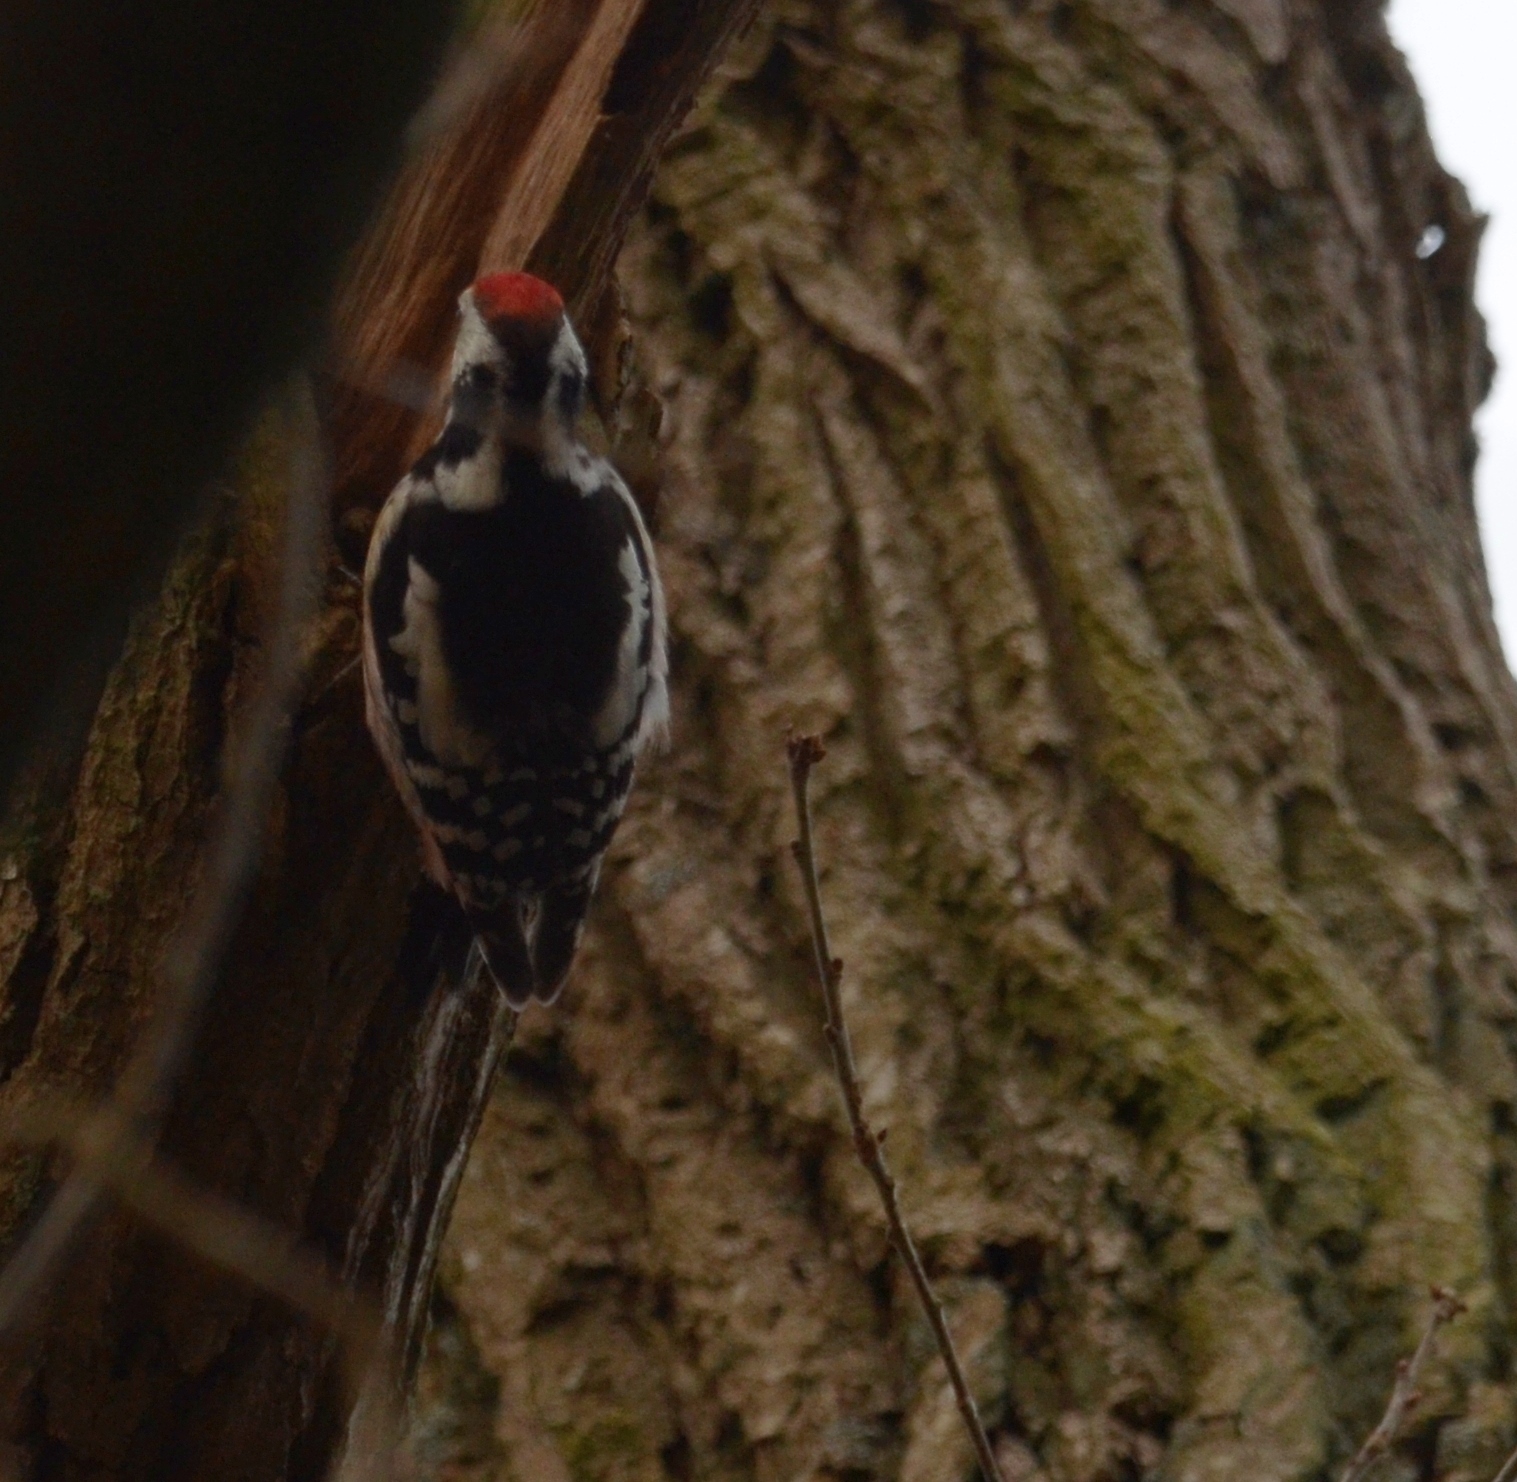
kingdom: Animalia
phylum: Chordata
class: Aves
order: Piciformes
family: Picidae
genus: Dendrocoptes
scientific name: Dendrocoptes medius
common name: Middle spotted woodpecker
